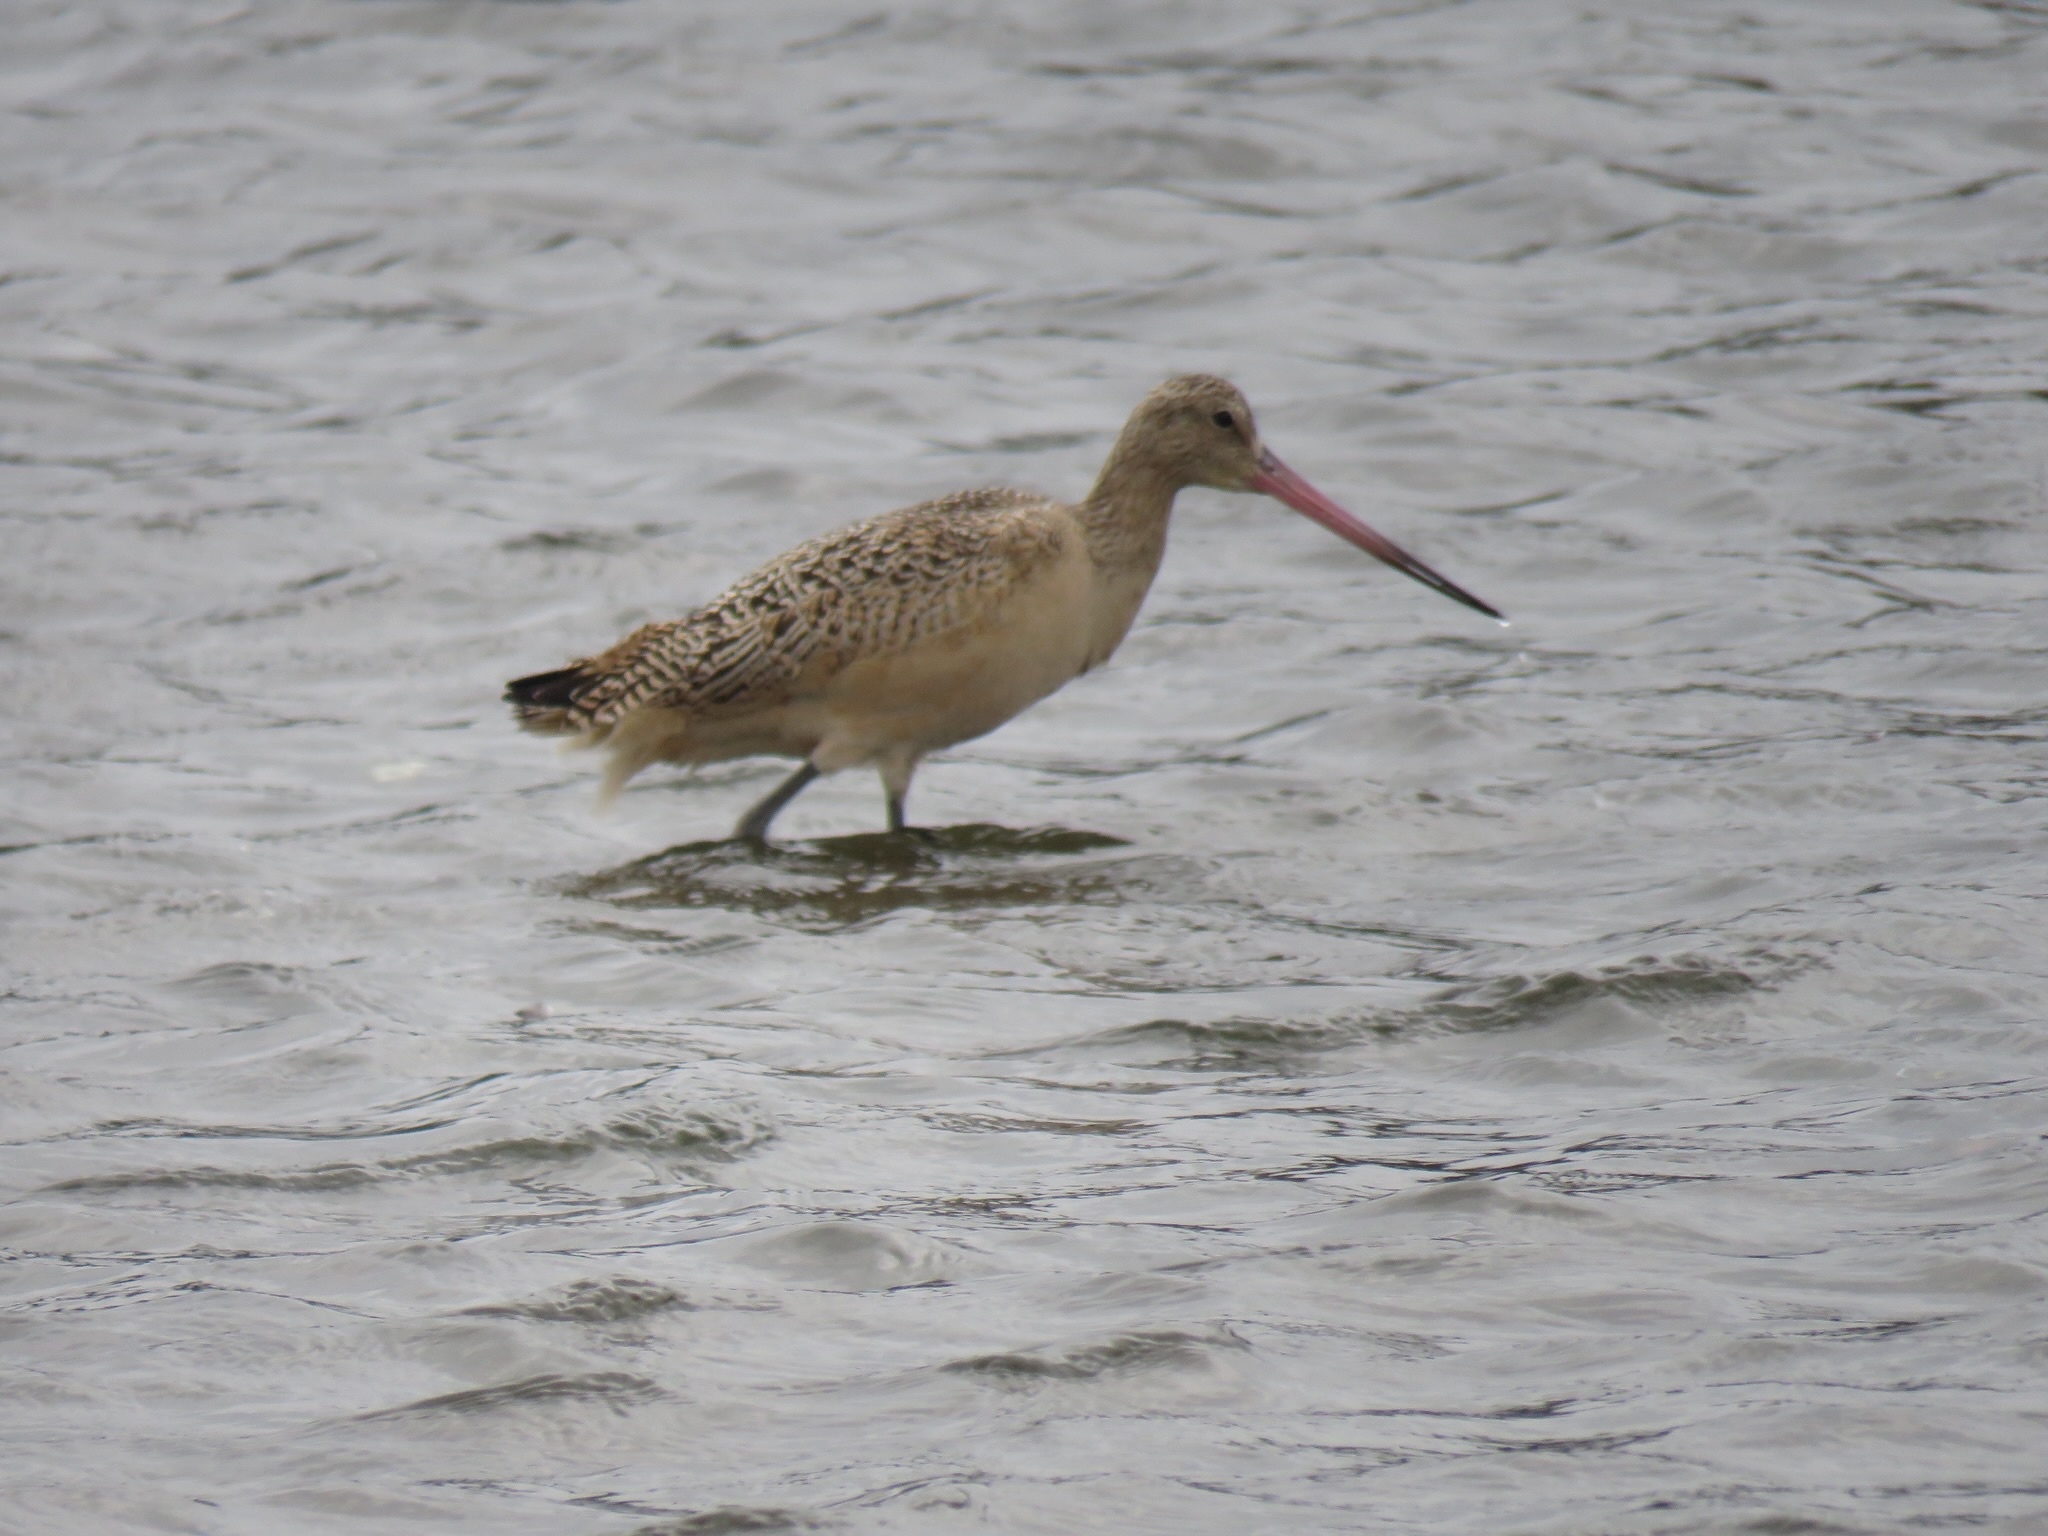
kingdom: Animalia
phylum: Chordata
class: Aves
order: Charadriiformes
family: Scolopacidae
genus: Limosa
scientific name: Limosa fedoa
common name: Marbled godwit
